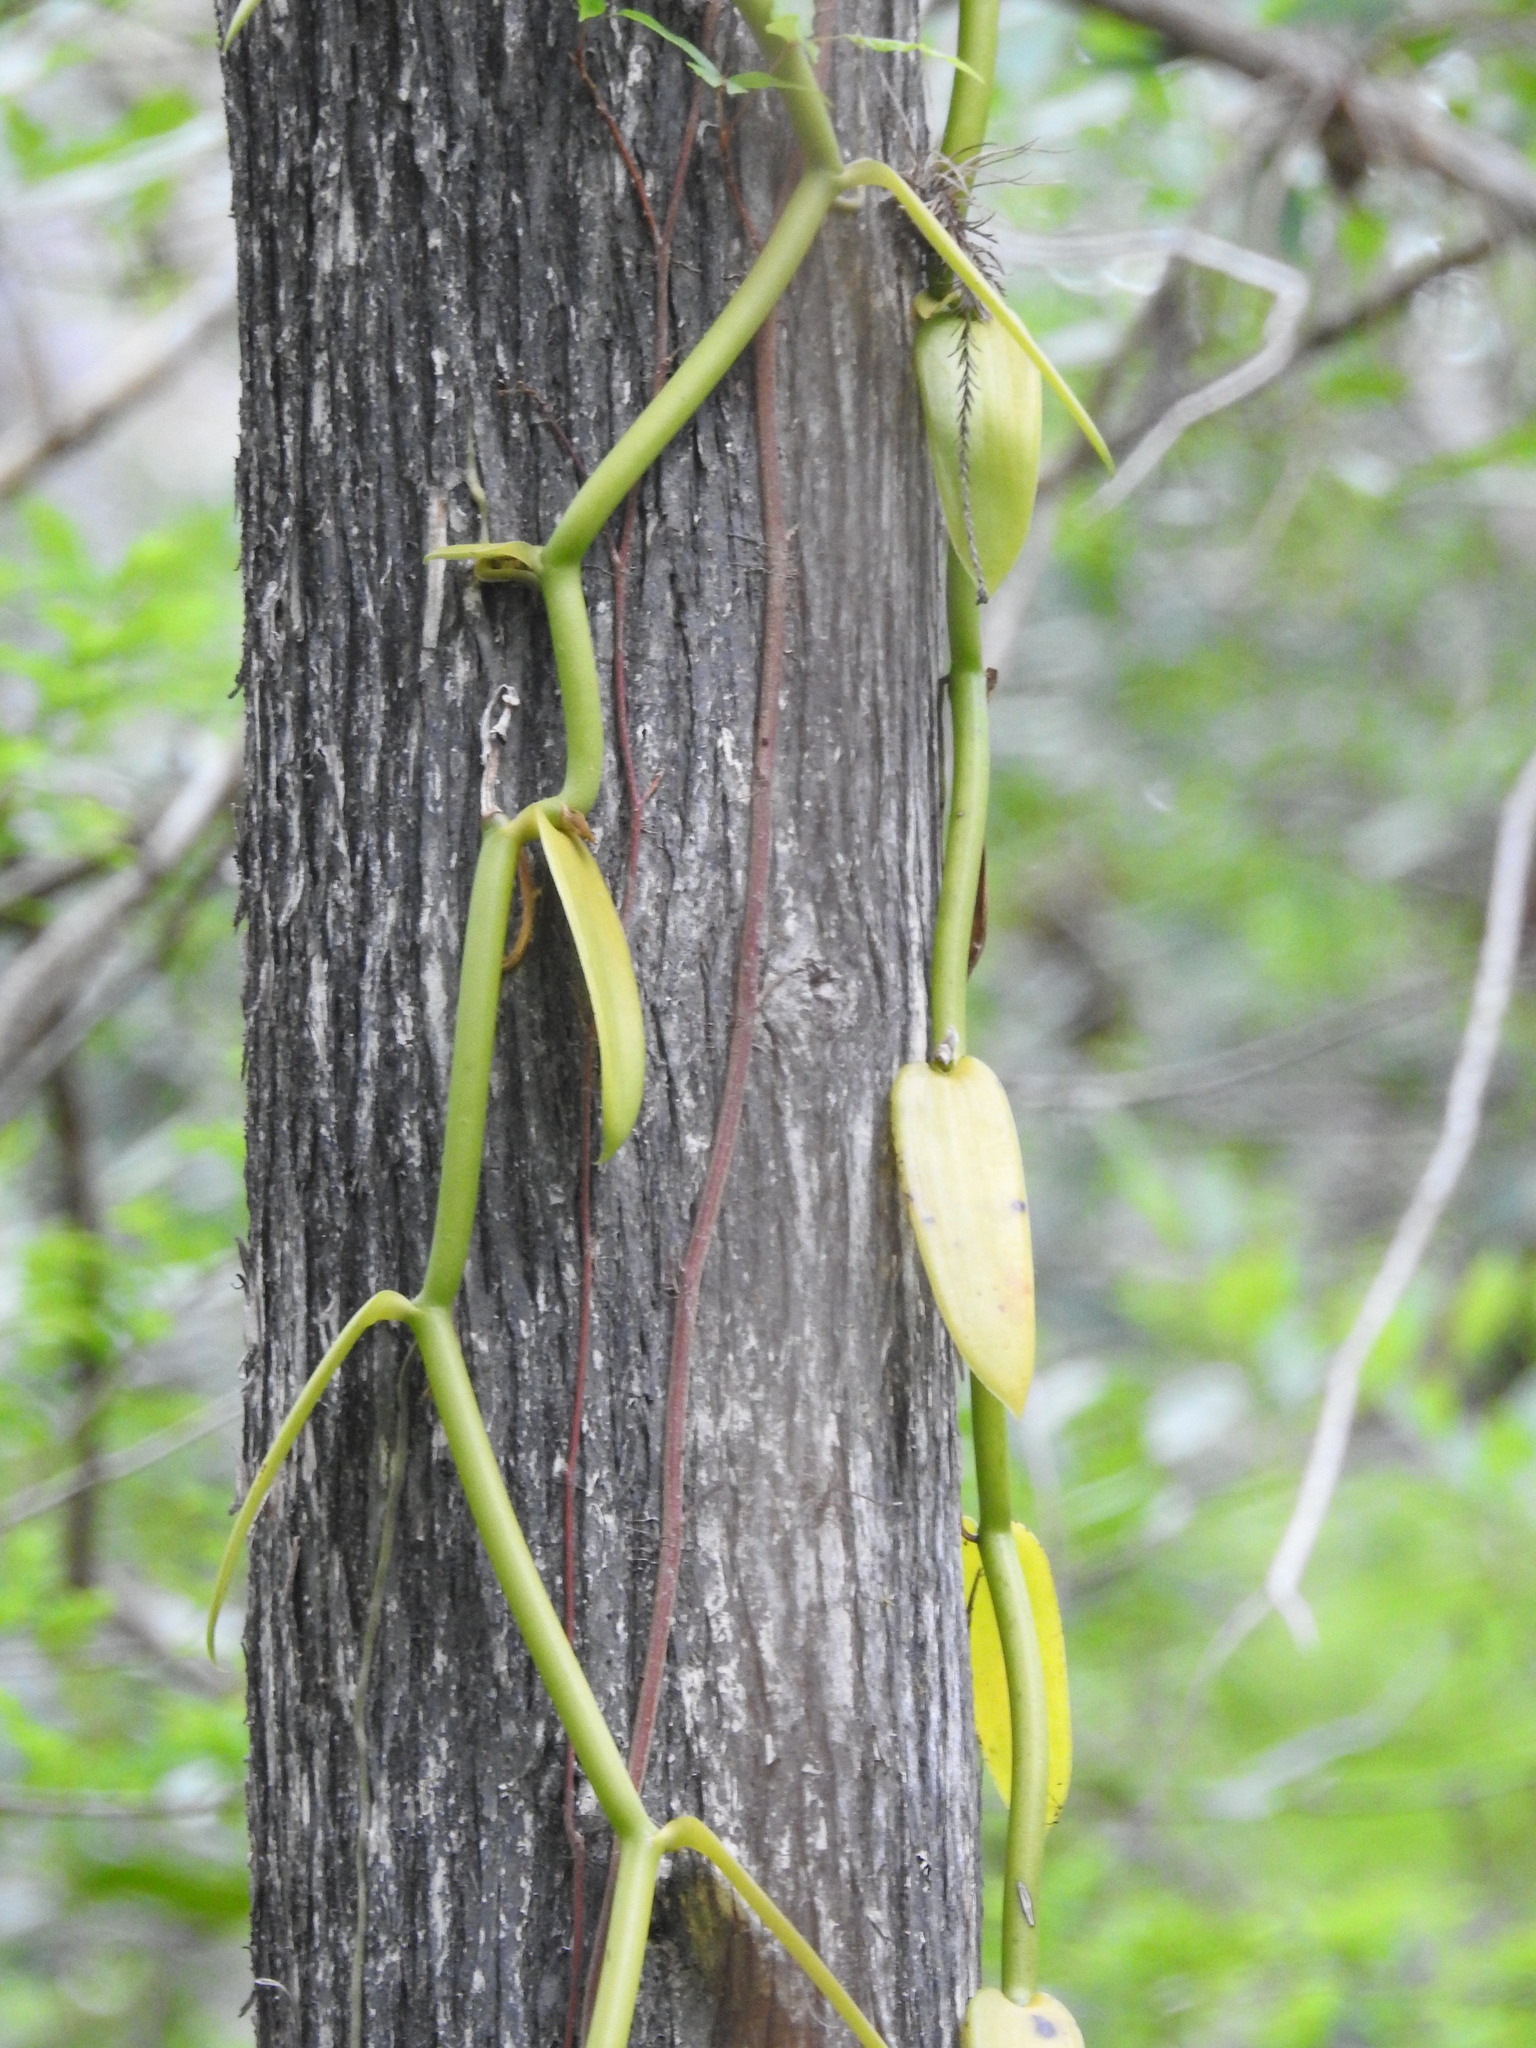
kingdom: Plantae
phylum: Tracheophyta
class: Liliopsida
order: Asparagales
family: Orchidaceae
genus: Vanilla
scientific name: Vanilla phaeantha
